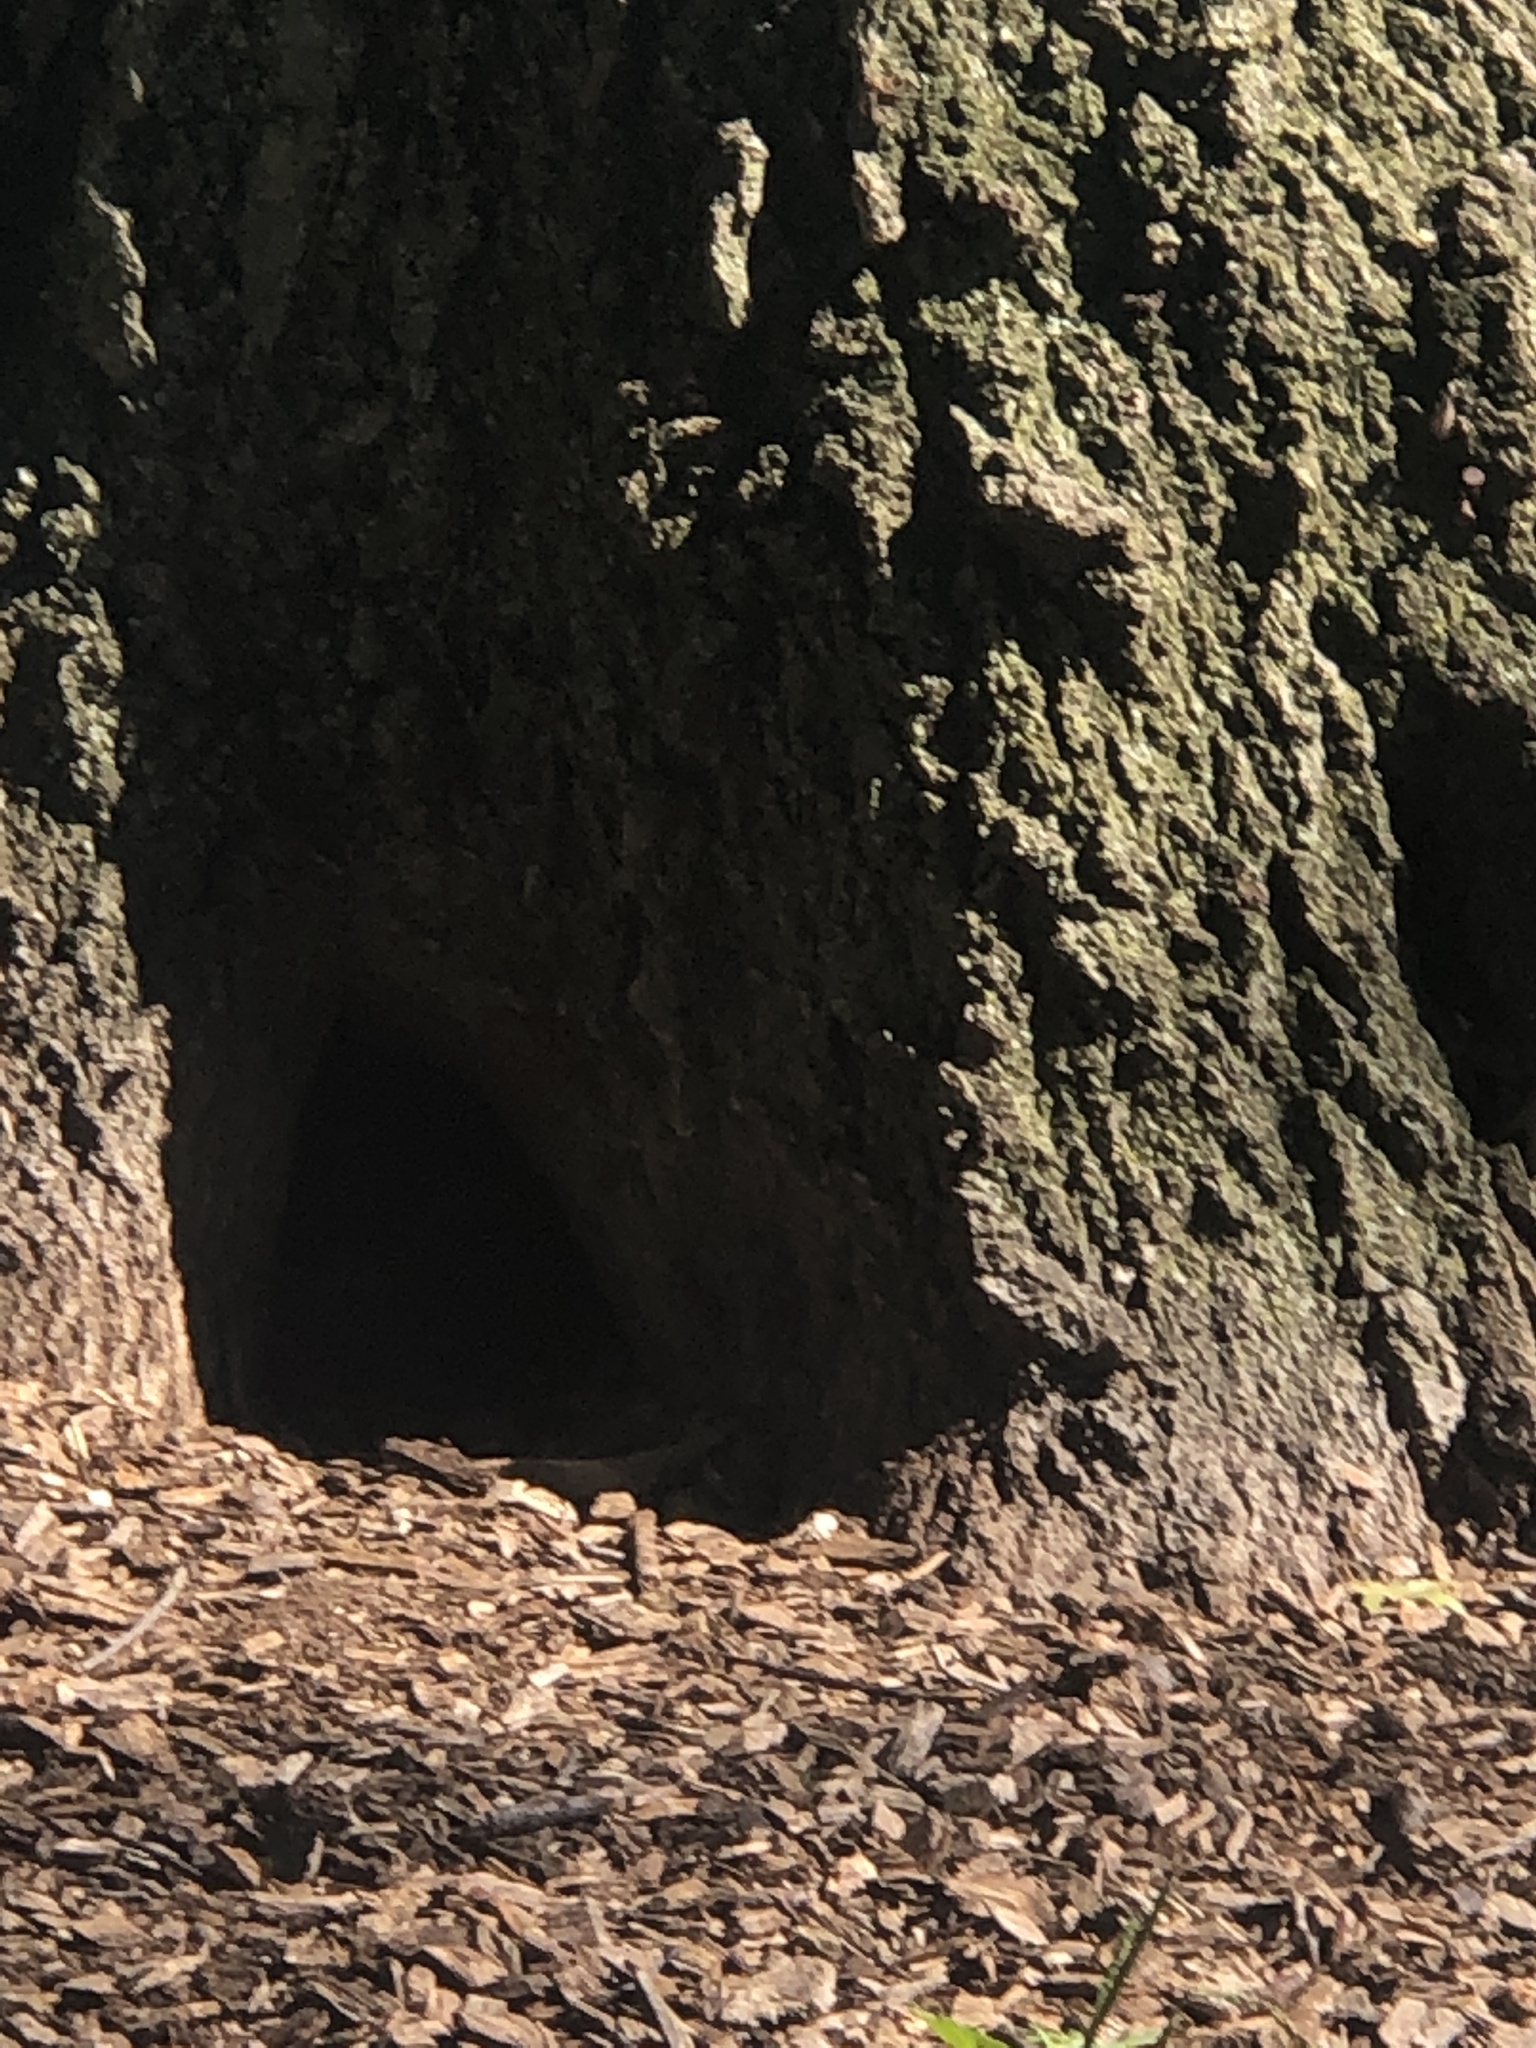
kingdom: Animalia
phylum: Chordata
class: Mammalia
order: Rodentia
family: Sciuridae
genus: Marmota
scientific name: Marmota monax
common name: Groundhog
